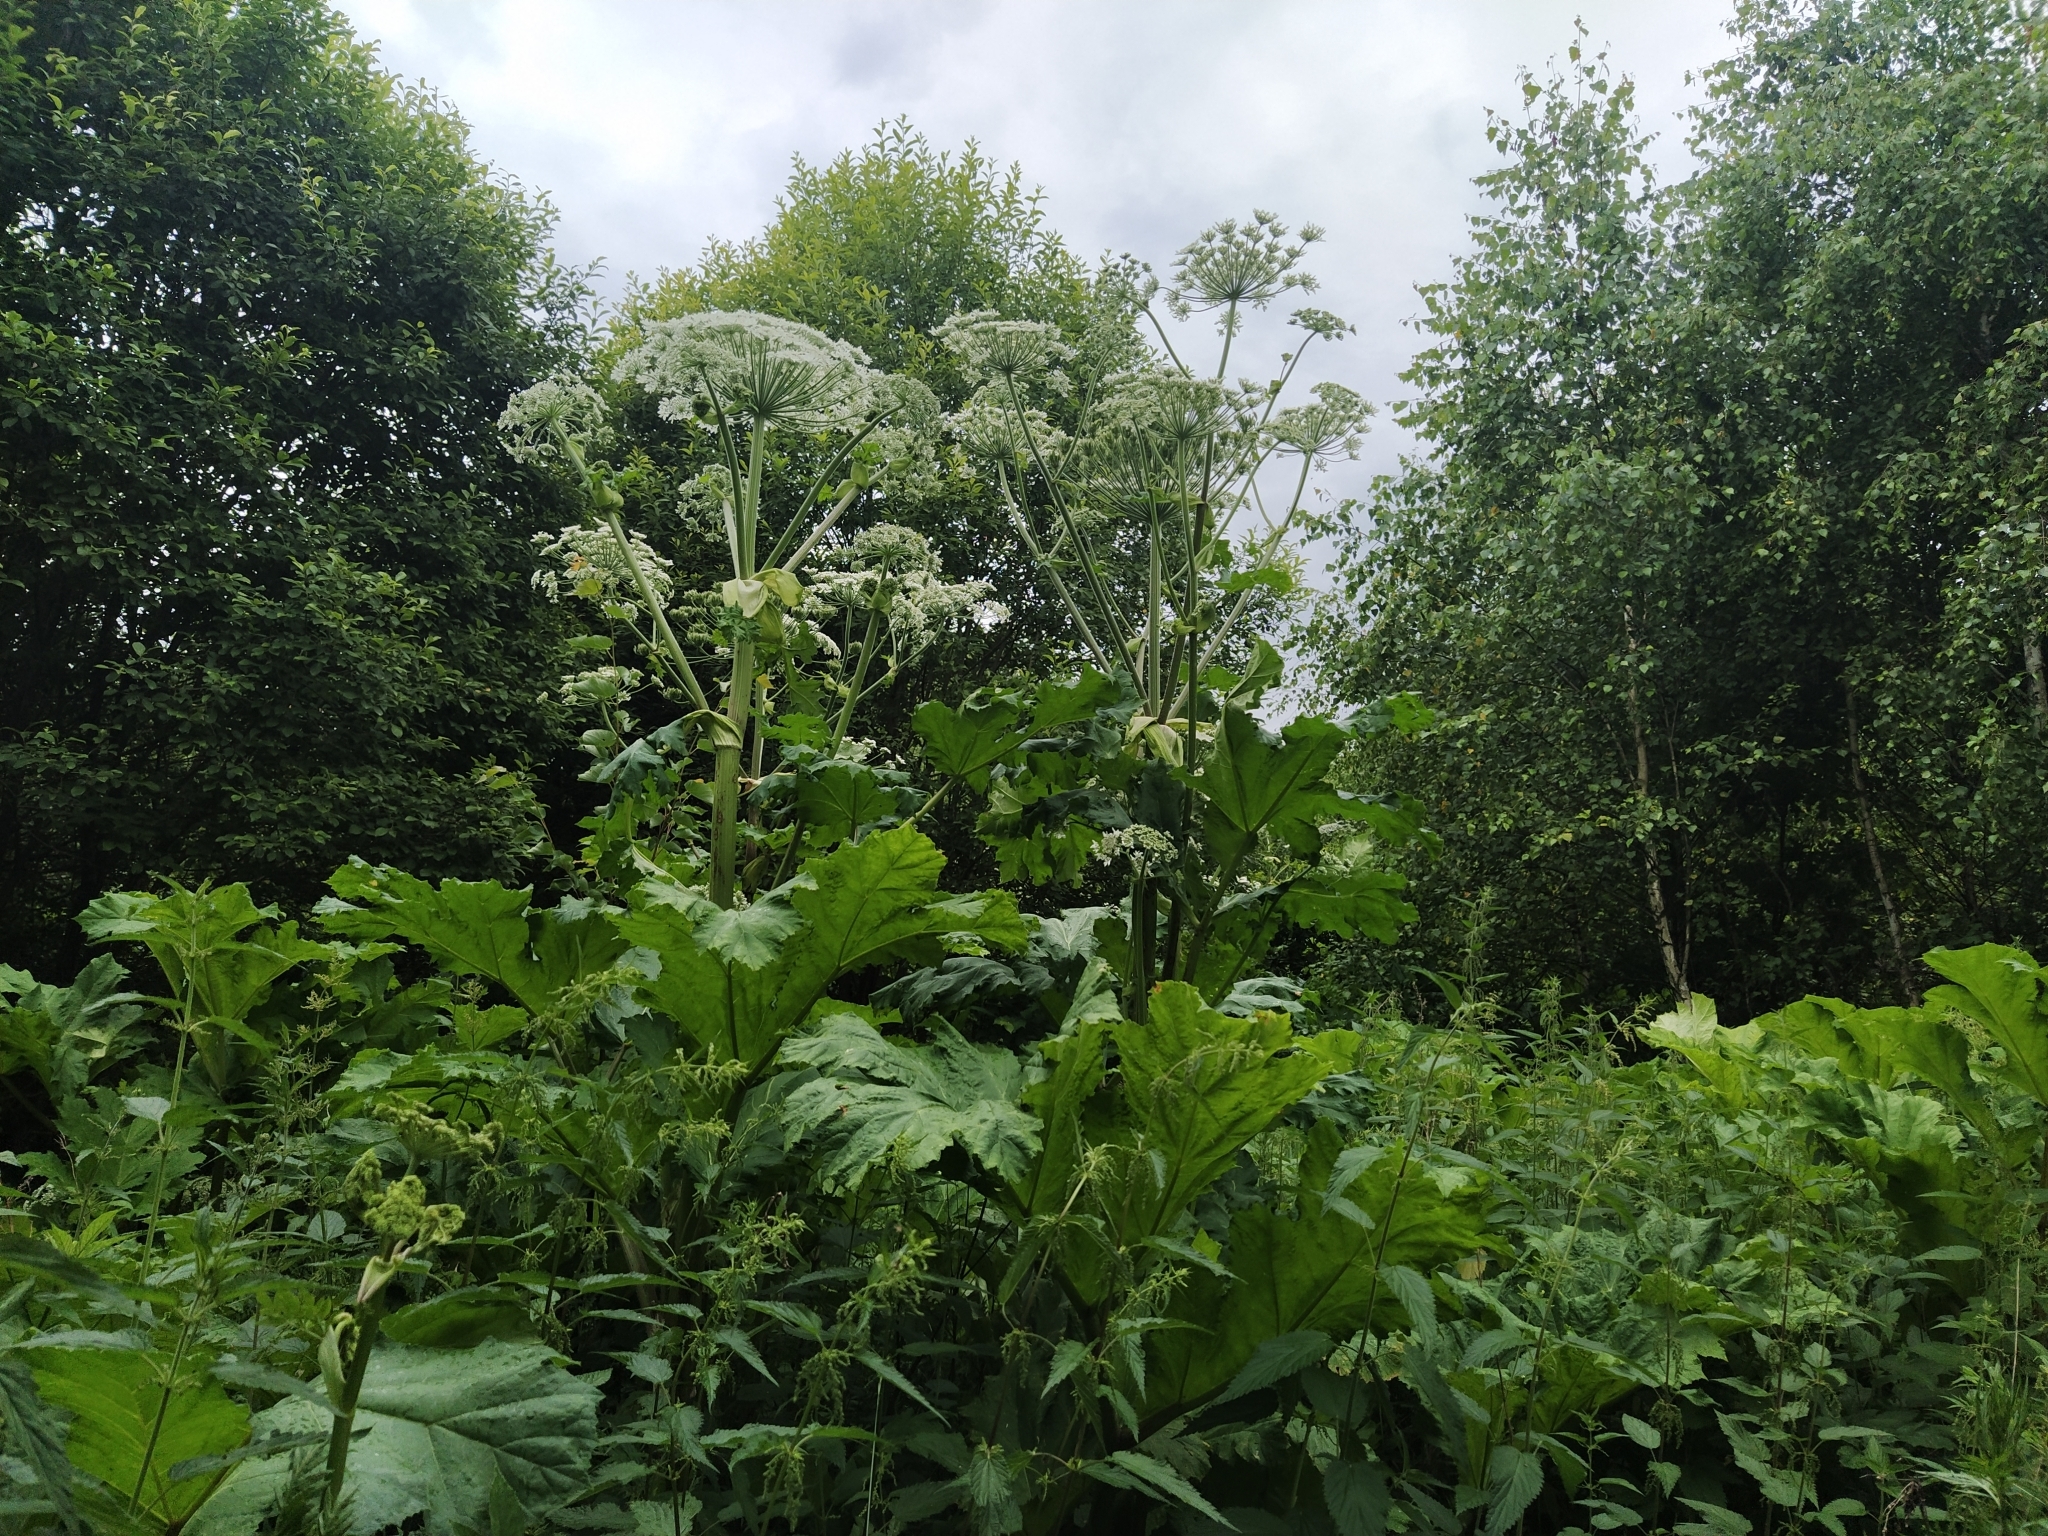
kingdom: Plantae
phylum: Tracheophyta
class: Magnoliopsida
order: Apiales
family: Apiaceae
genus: Heracleum
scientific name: Heracleum sosnowskyi
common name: Sosnowsky's hogweed
